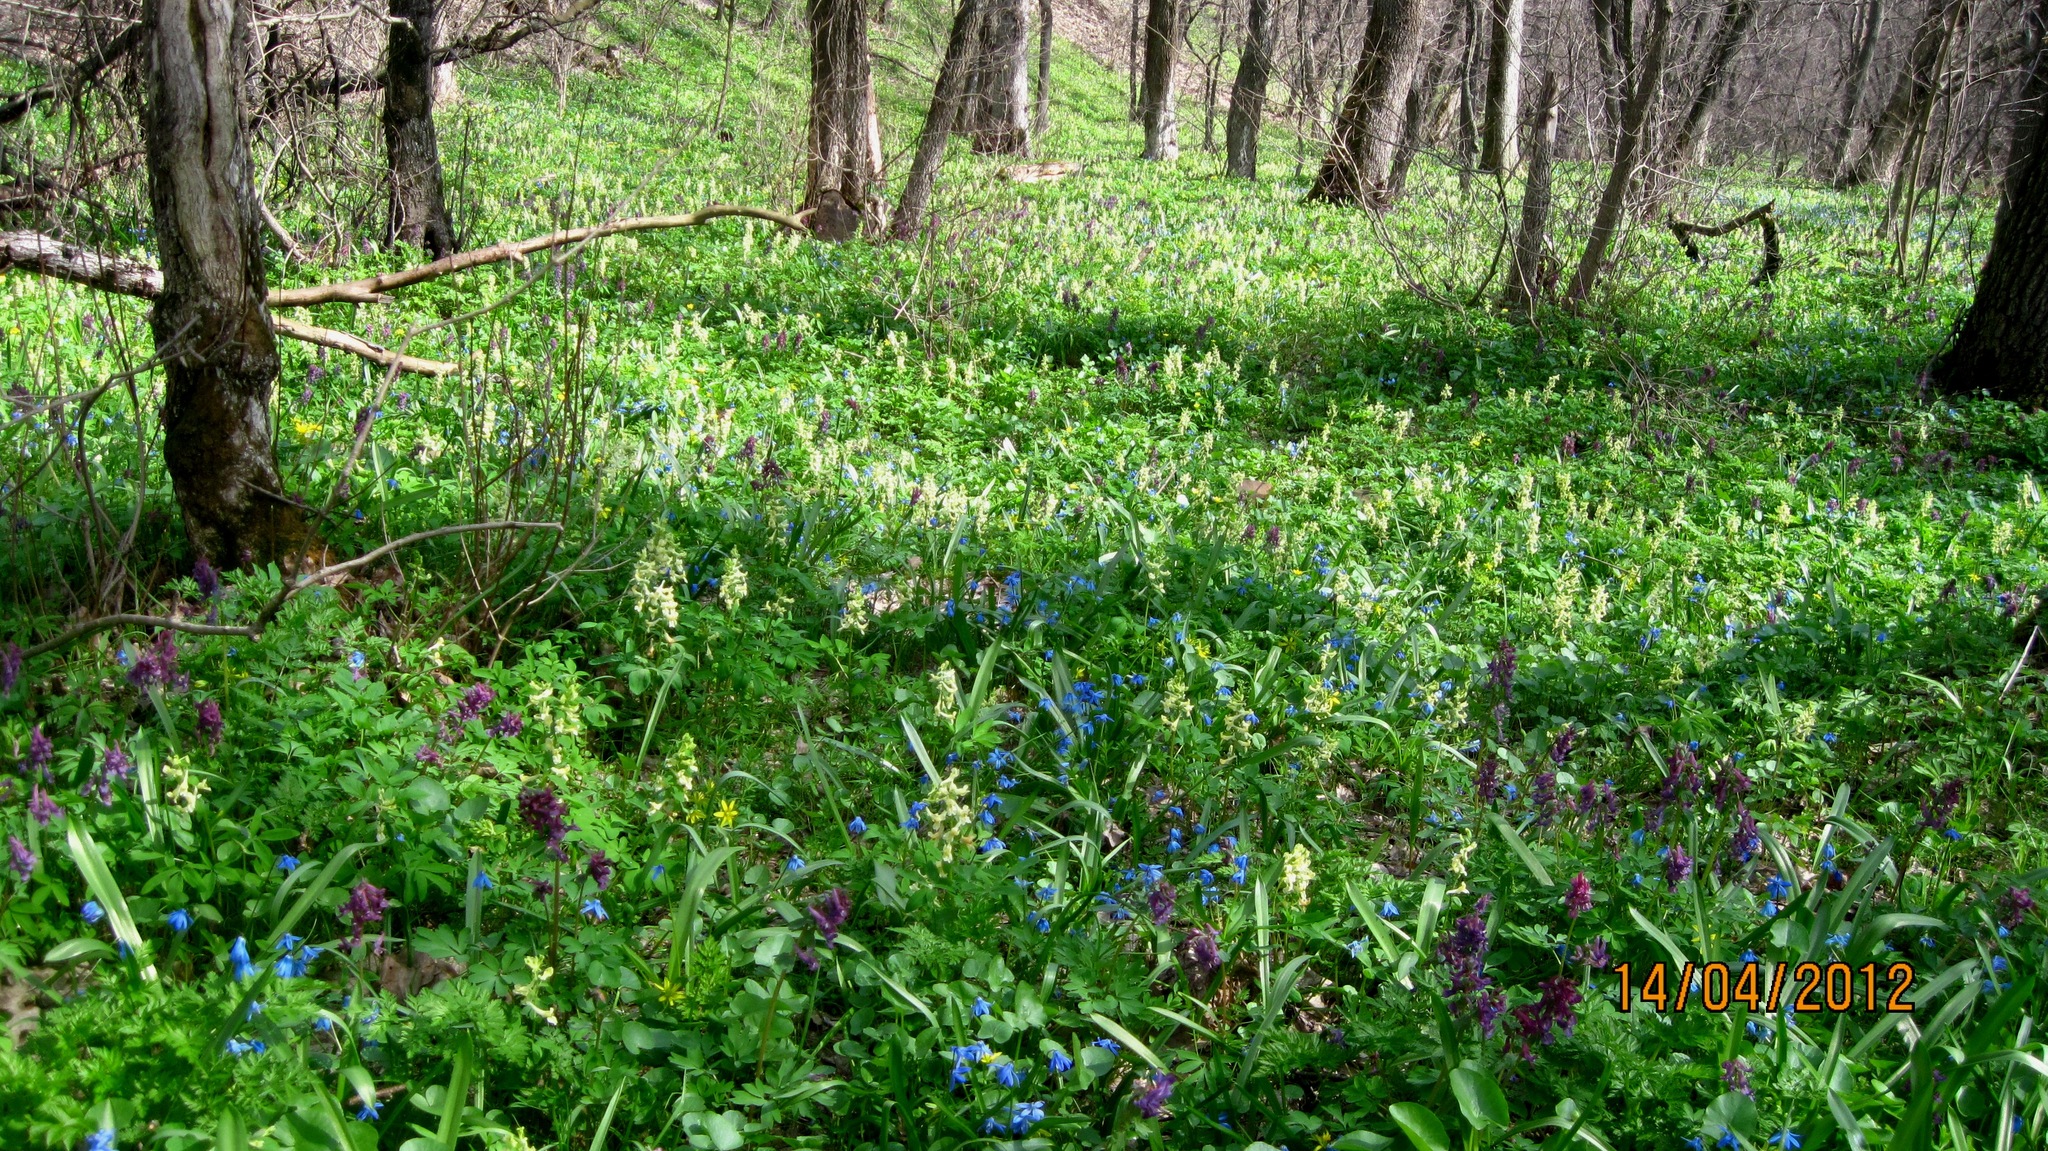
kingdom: Plantae
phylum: Tracheophyta
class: Magnoliopsida
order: Ranunculales
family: Papaveraceae
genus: Corydalis
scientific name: Corydalis cava
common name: Hollowroot
